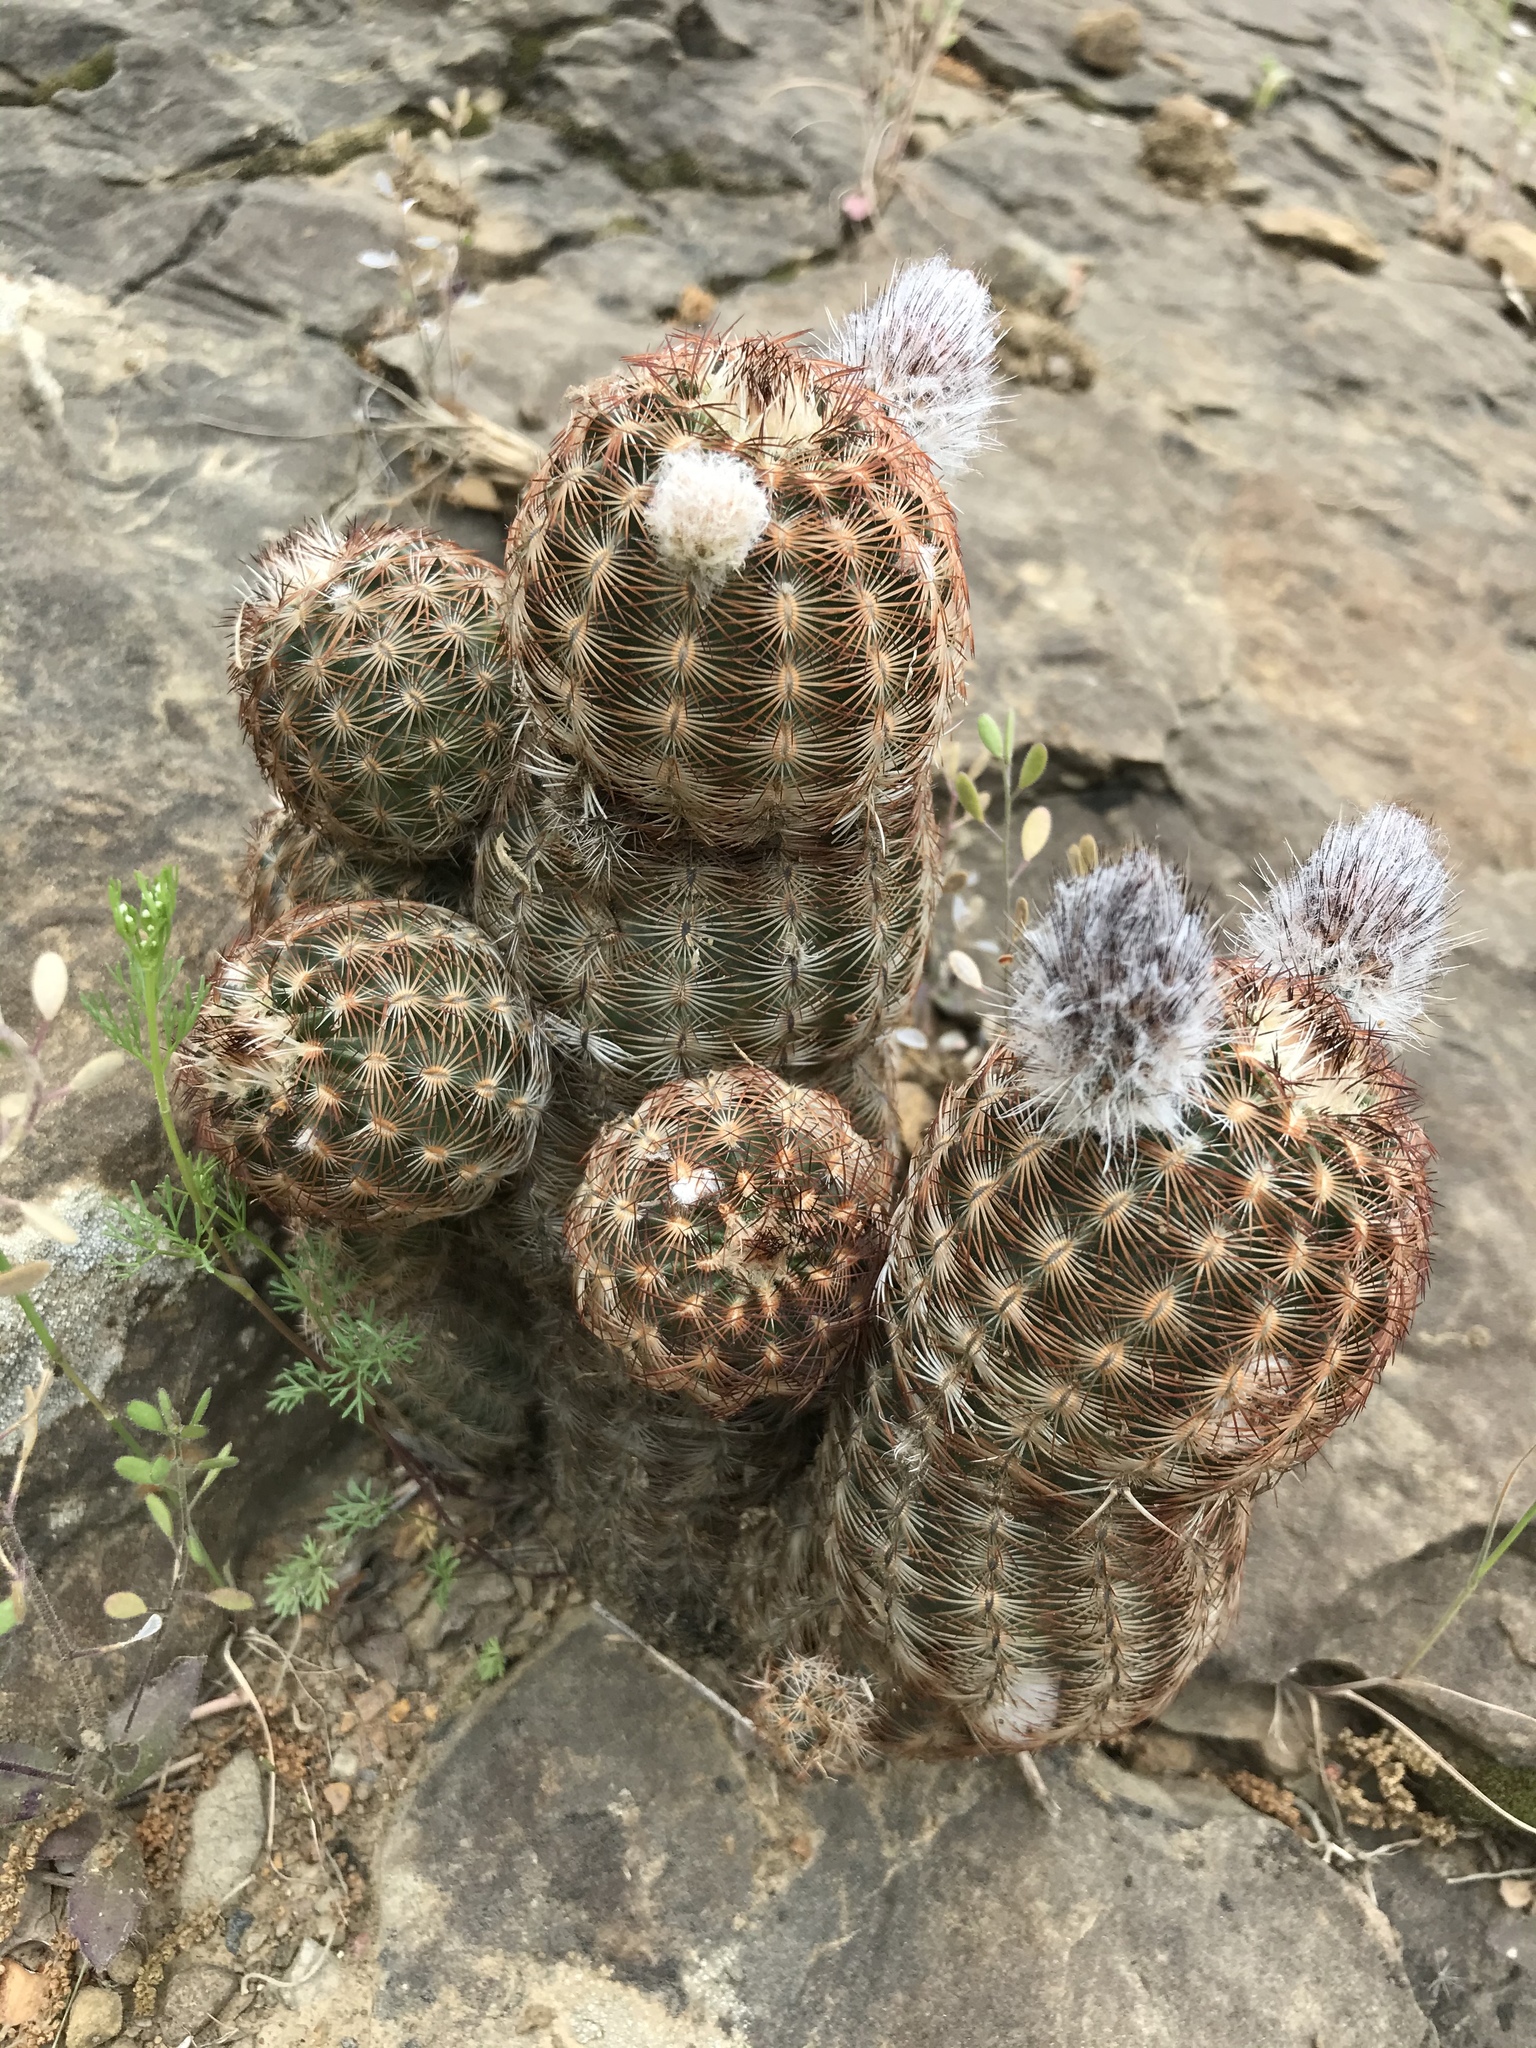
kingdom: Plantae
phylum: Tracheophyta
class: Magnoliopsida
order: Caryophyllales
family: Cactaceae
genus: Echinocereus
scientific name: Echinocereus reichenbachii
